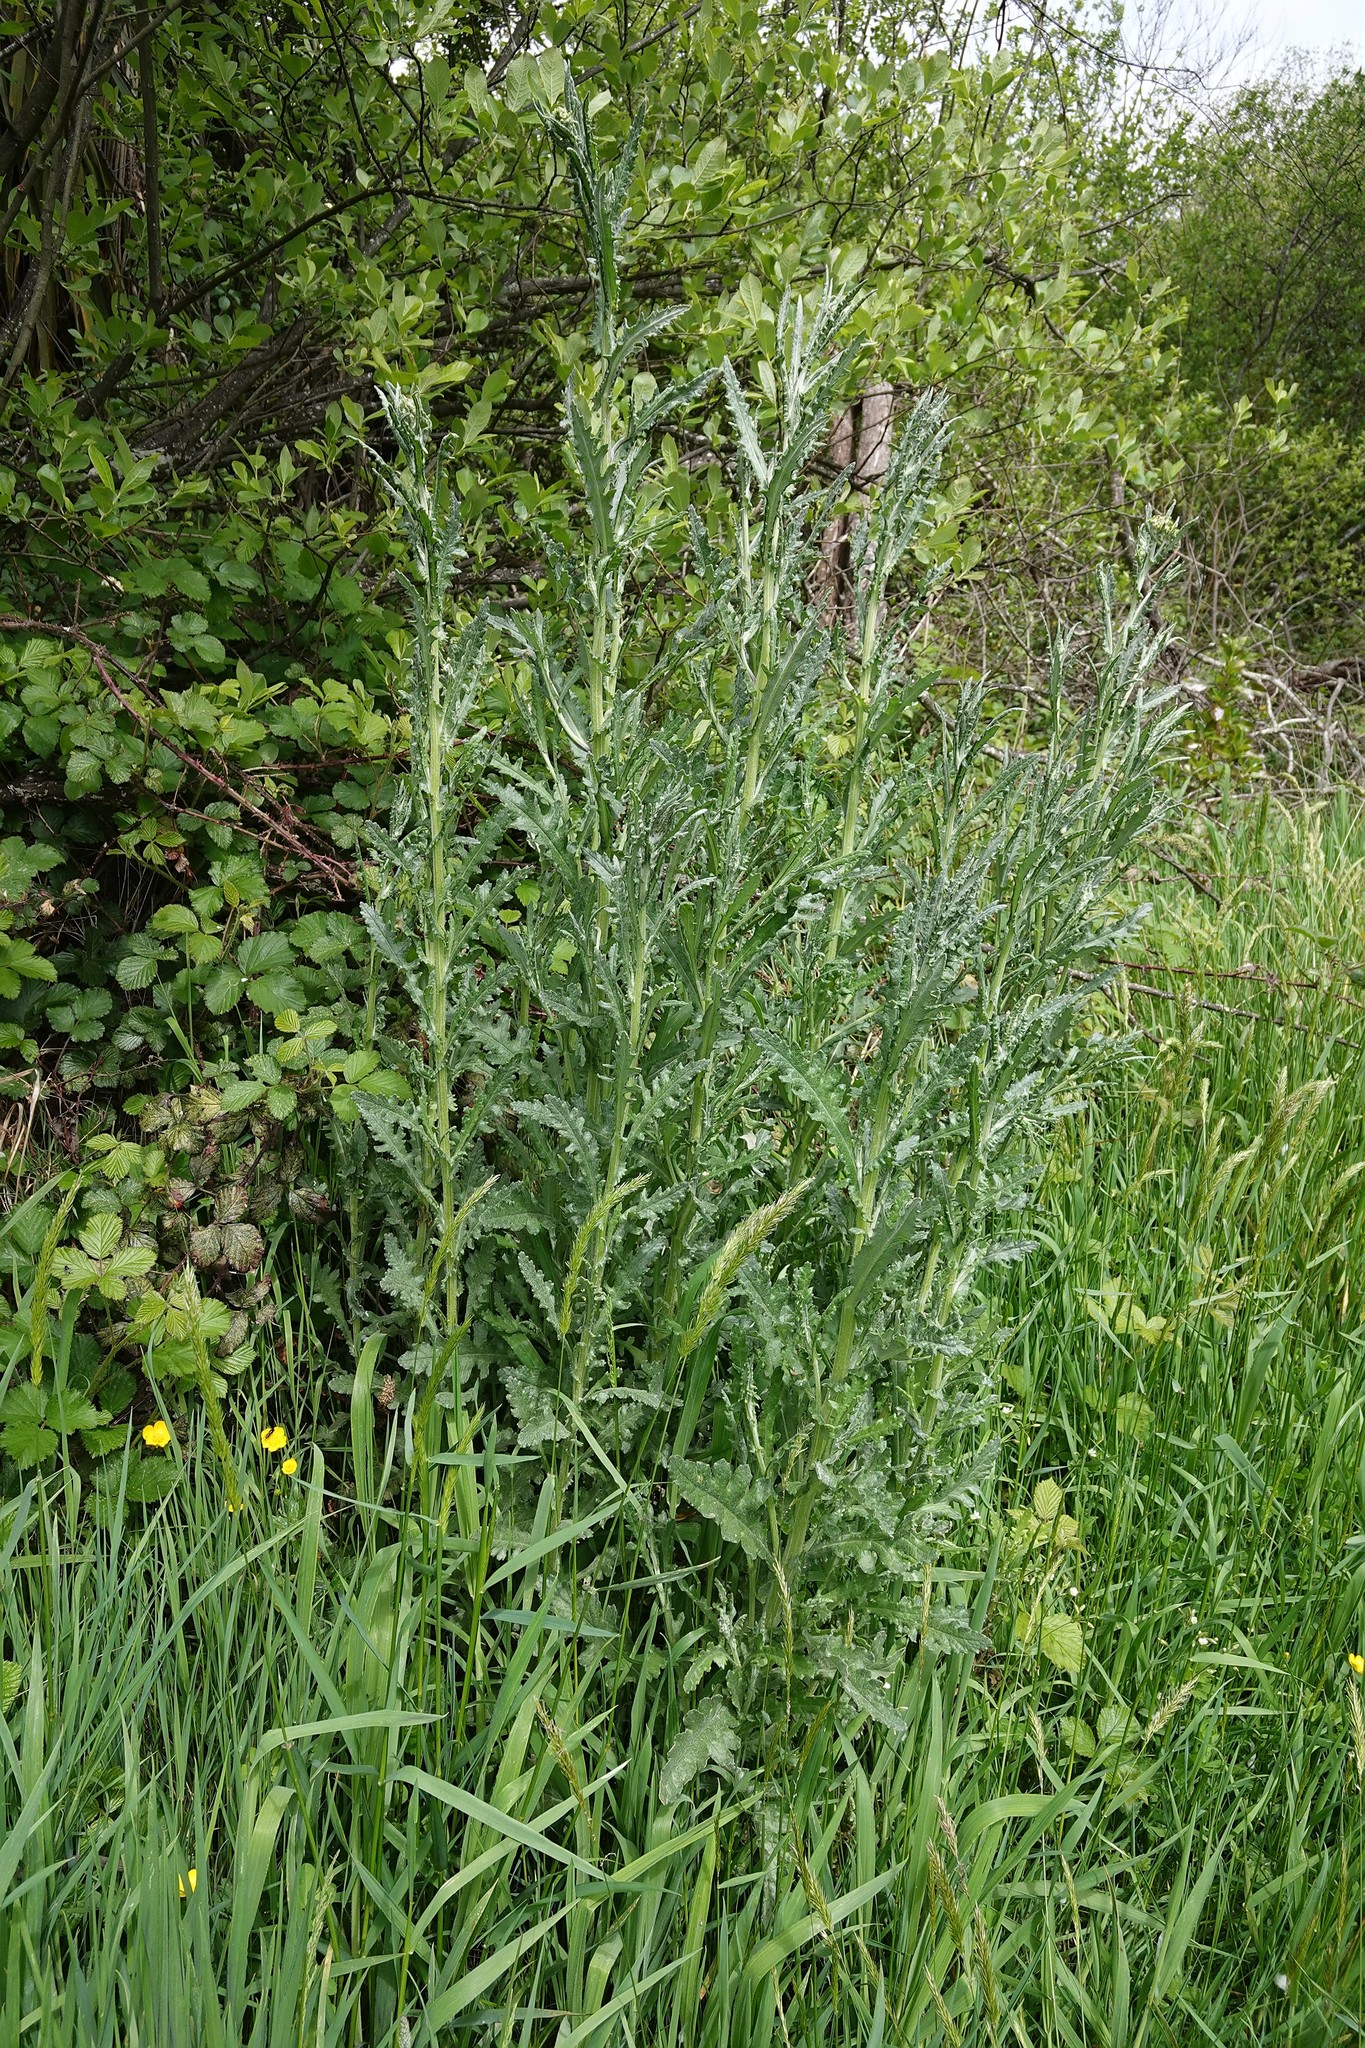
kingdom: Plantae
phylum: Tracheophyta
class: Magnoliopsida
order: Asterales
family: Asteraceae
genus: Senecio
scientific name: Senecio glomeratus
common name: Cutleaf burnweed
